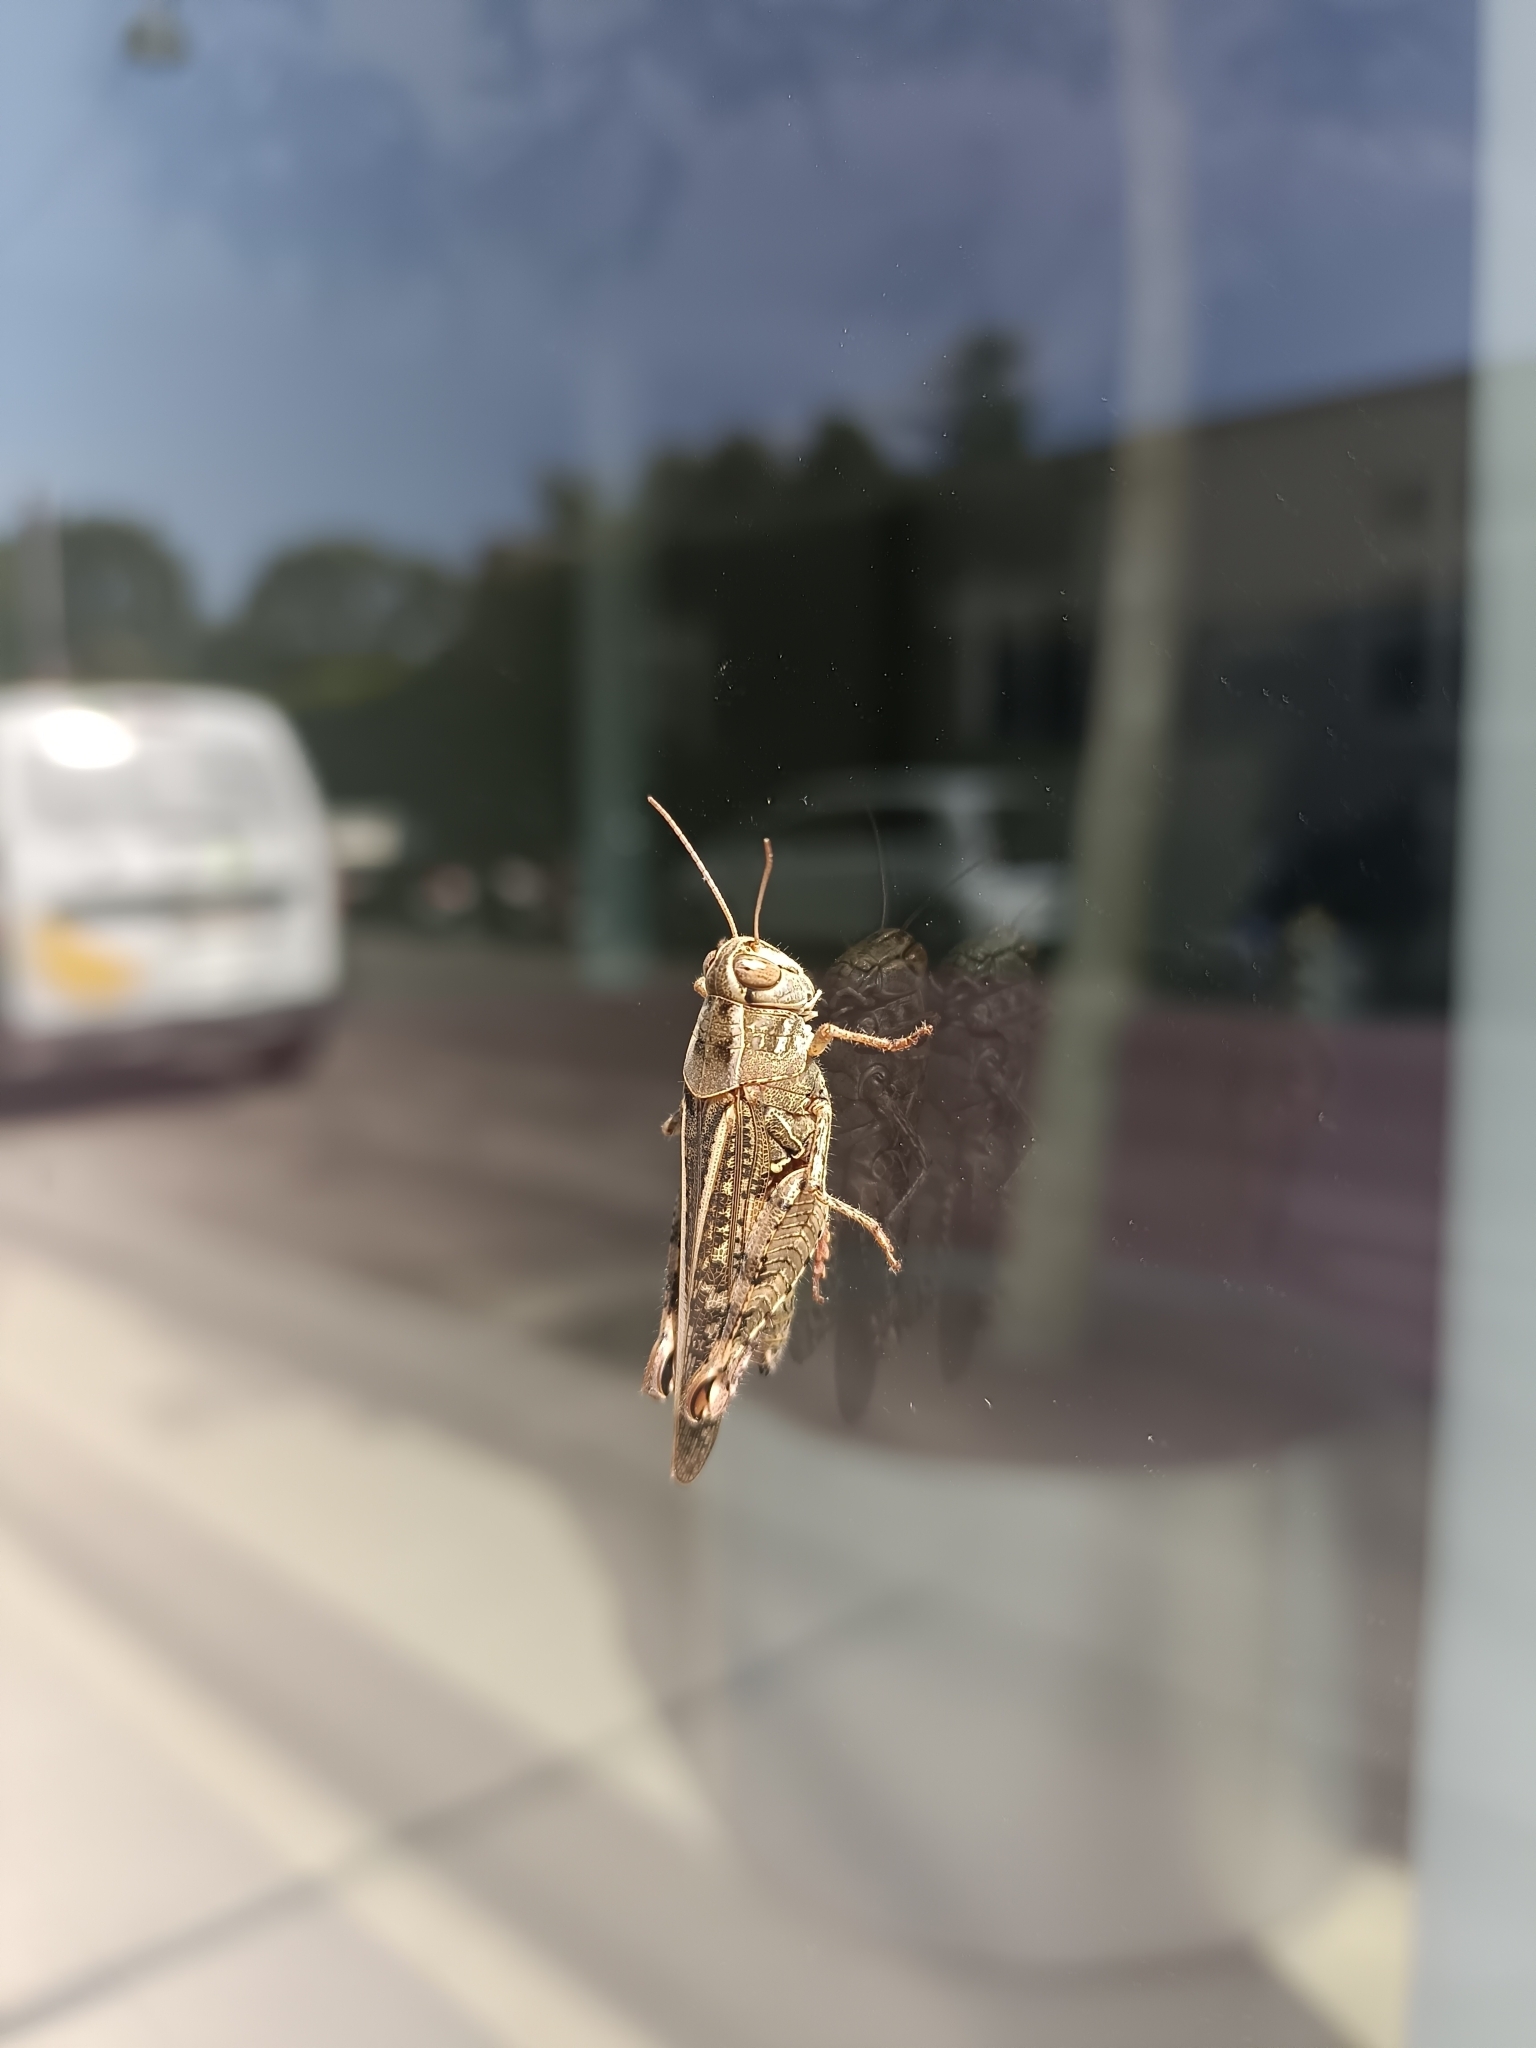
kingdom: Animalia
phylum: Arthropoda
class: Insecta
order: Orthoptera
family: Acrididae
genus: Calliptamus
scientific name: Calliptamus italicus
